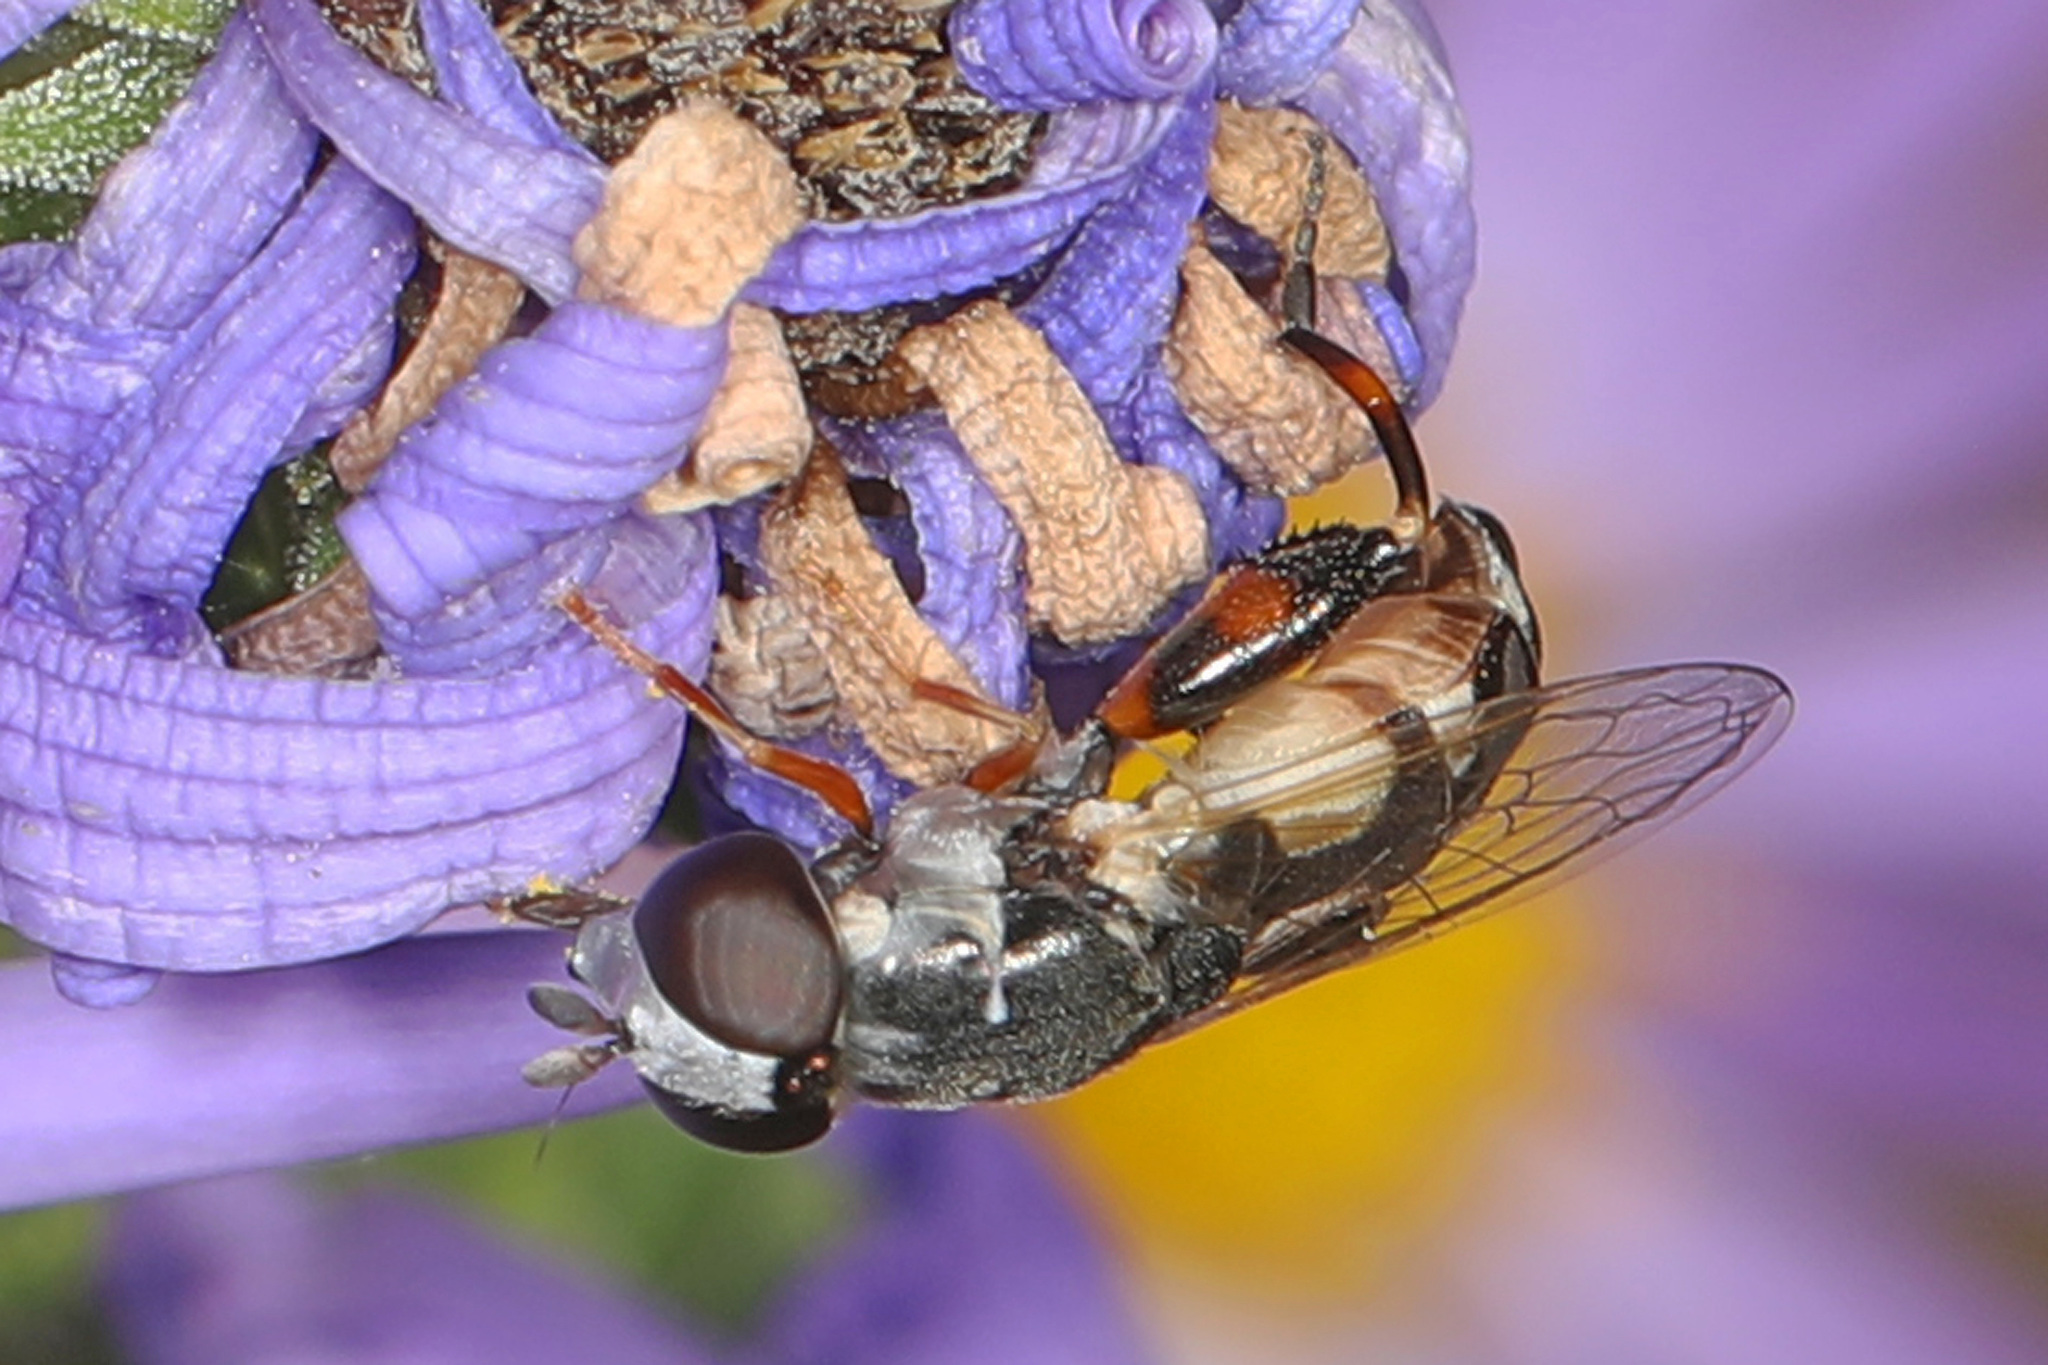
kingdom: Animalia
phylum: Arthropoda
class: Insecta
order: Diptera
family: Syrphidae
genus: Syritta
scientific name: Syritta flaviventris
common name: Syrphid fly
